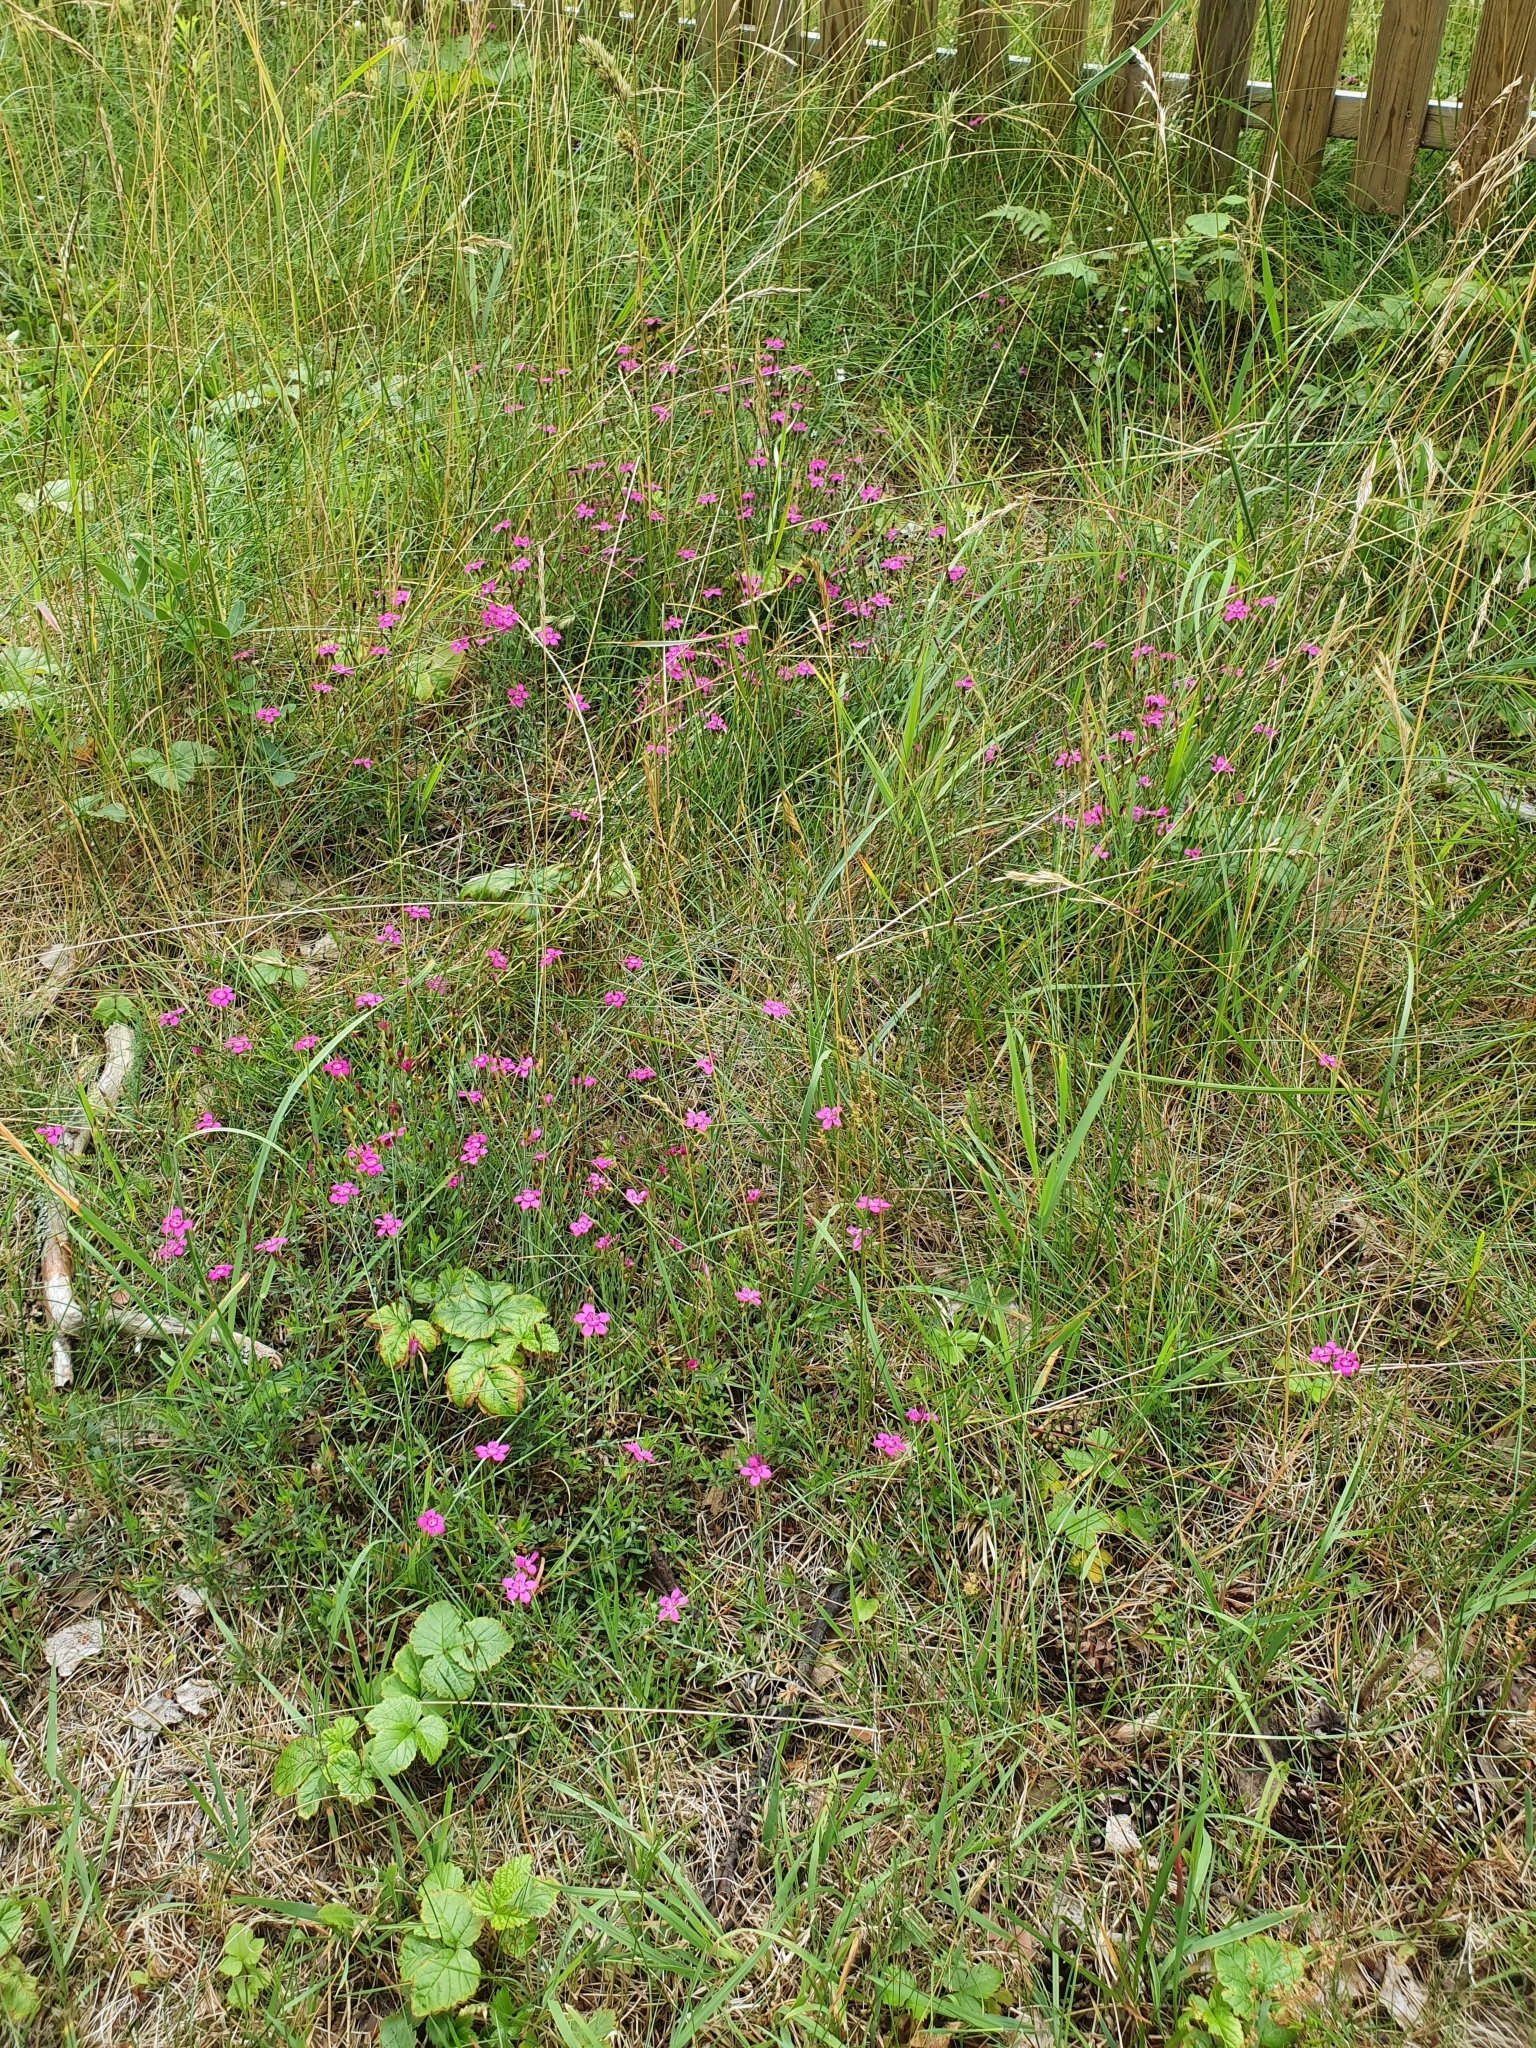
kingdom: Plantae
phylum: Tracheophyta
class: Magnoliopsida
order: Caryophyllales
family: Caryophyllaceae
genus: Dianthus
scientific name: Dianthus deltoides
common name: Maiden pink
